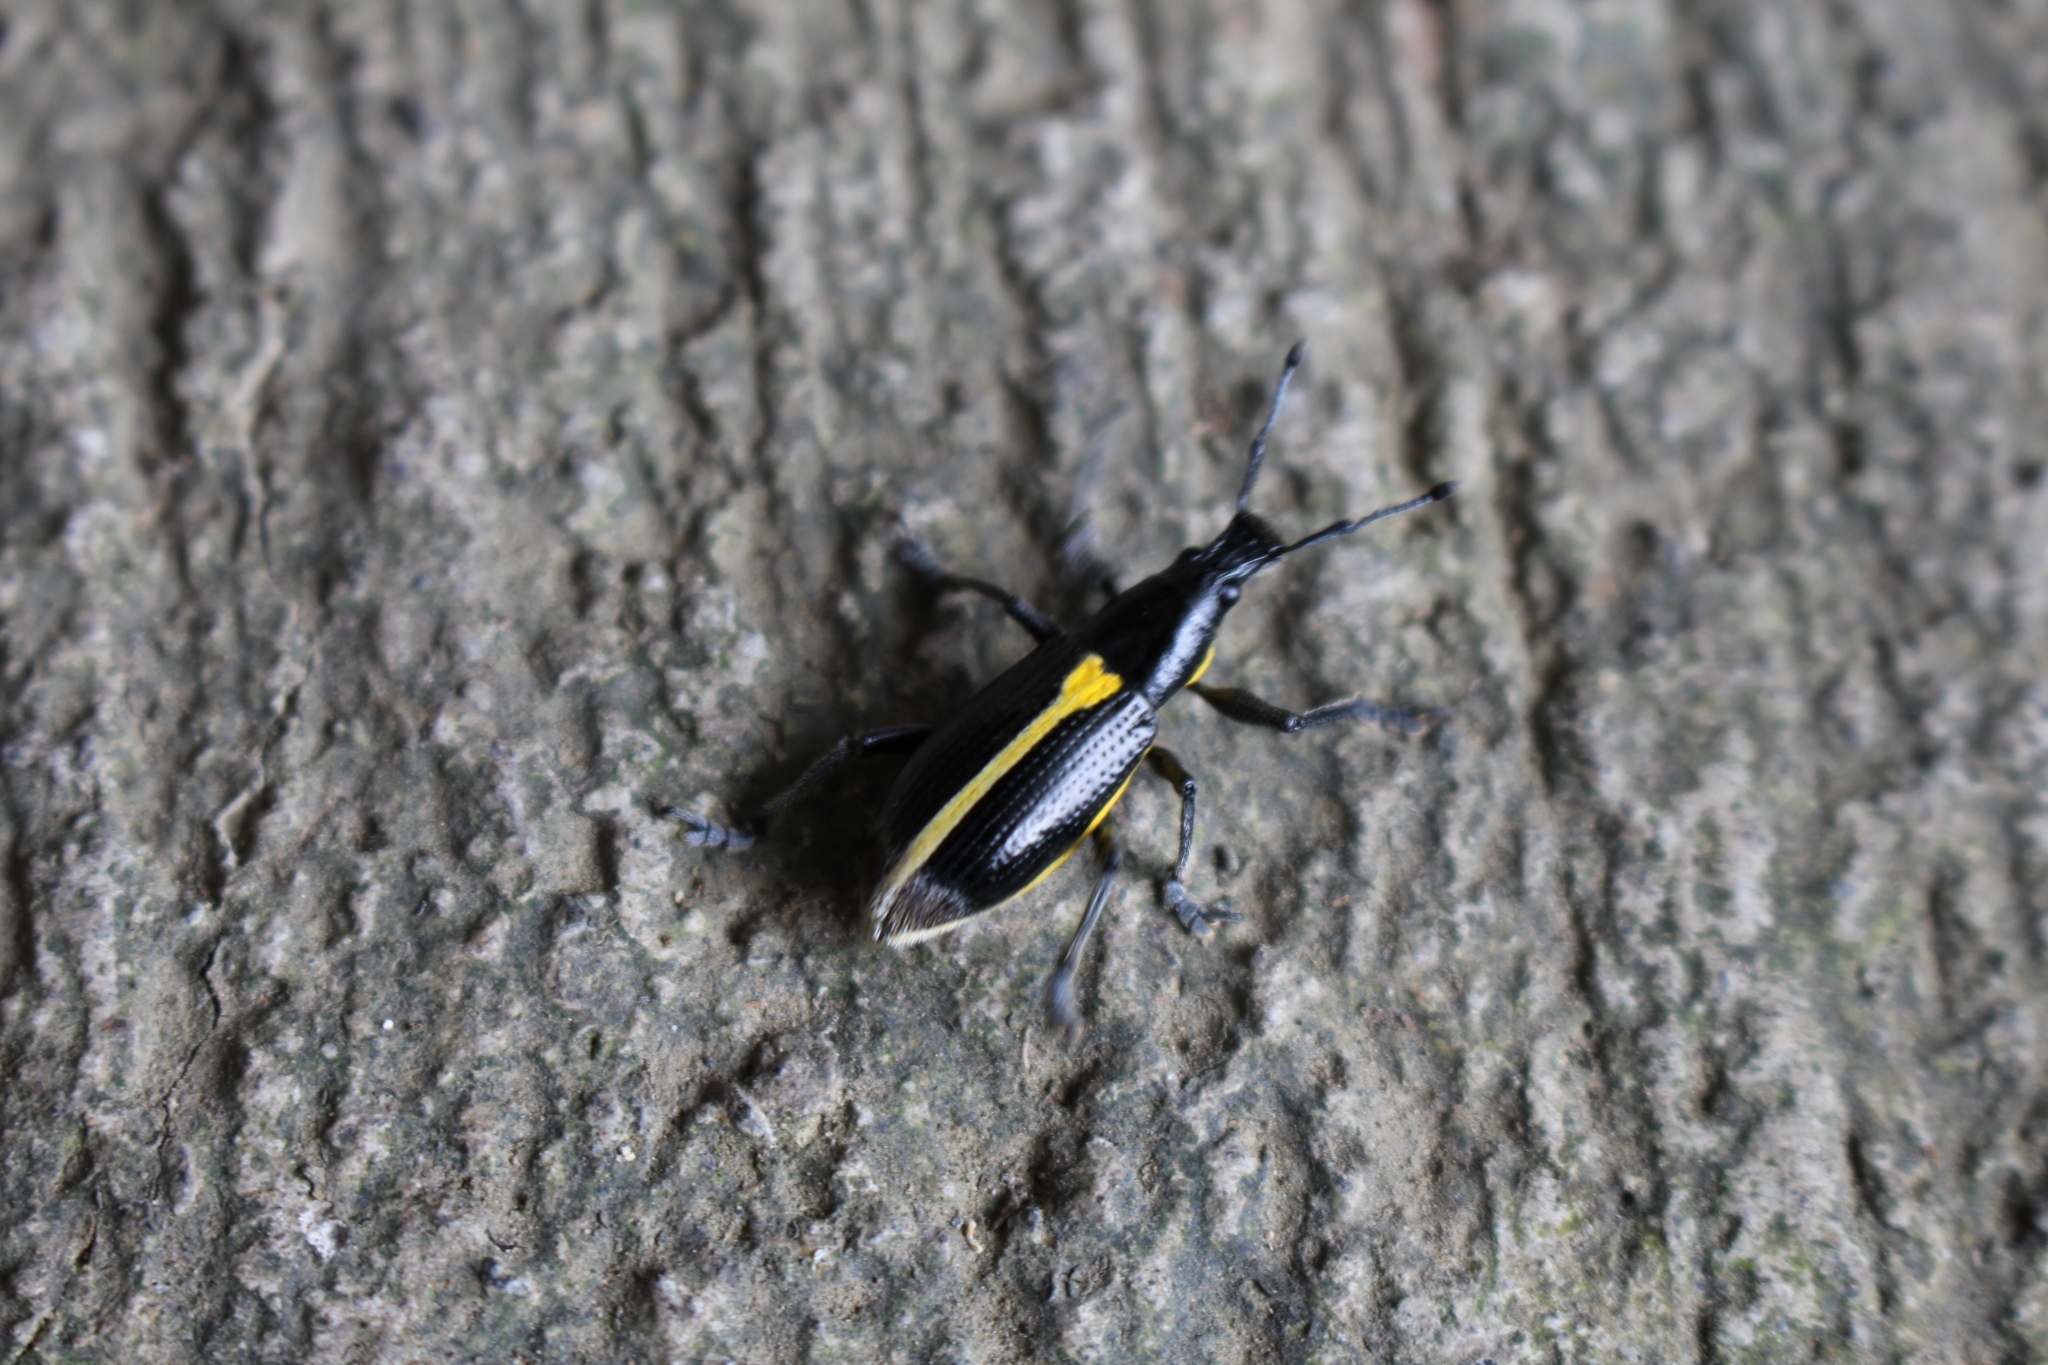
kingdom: Animalia
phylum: Arthropoda
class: Insecta
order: Coleoptera
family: Curculionidae
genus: Rhinospathe
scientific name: Rhinospathe albomarginata
